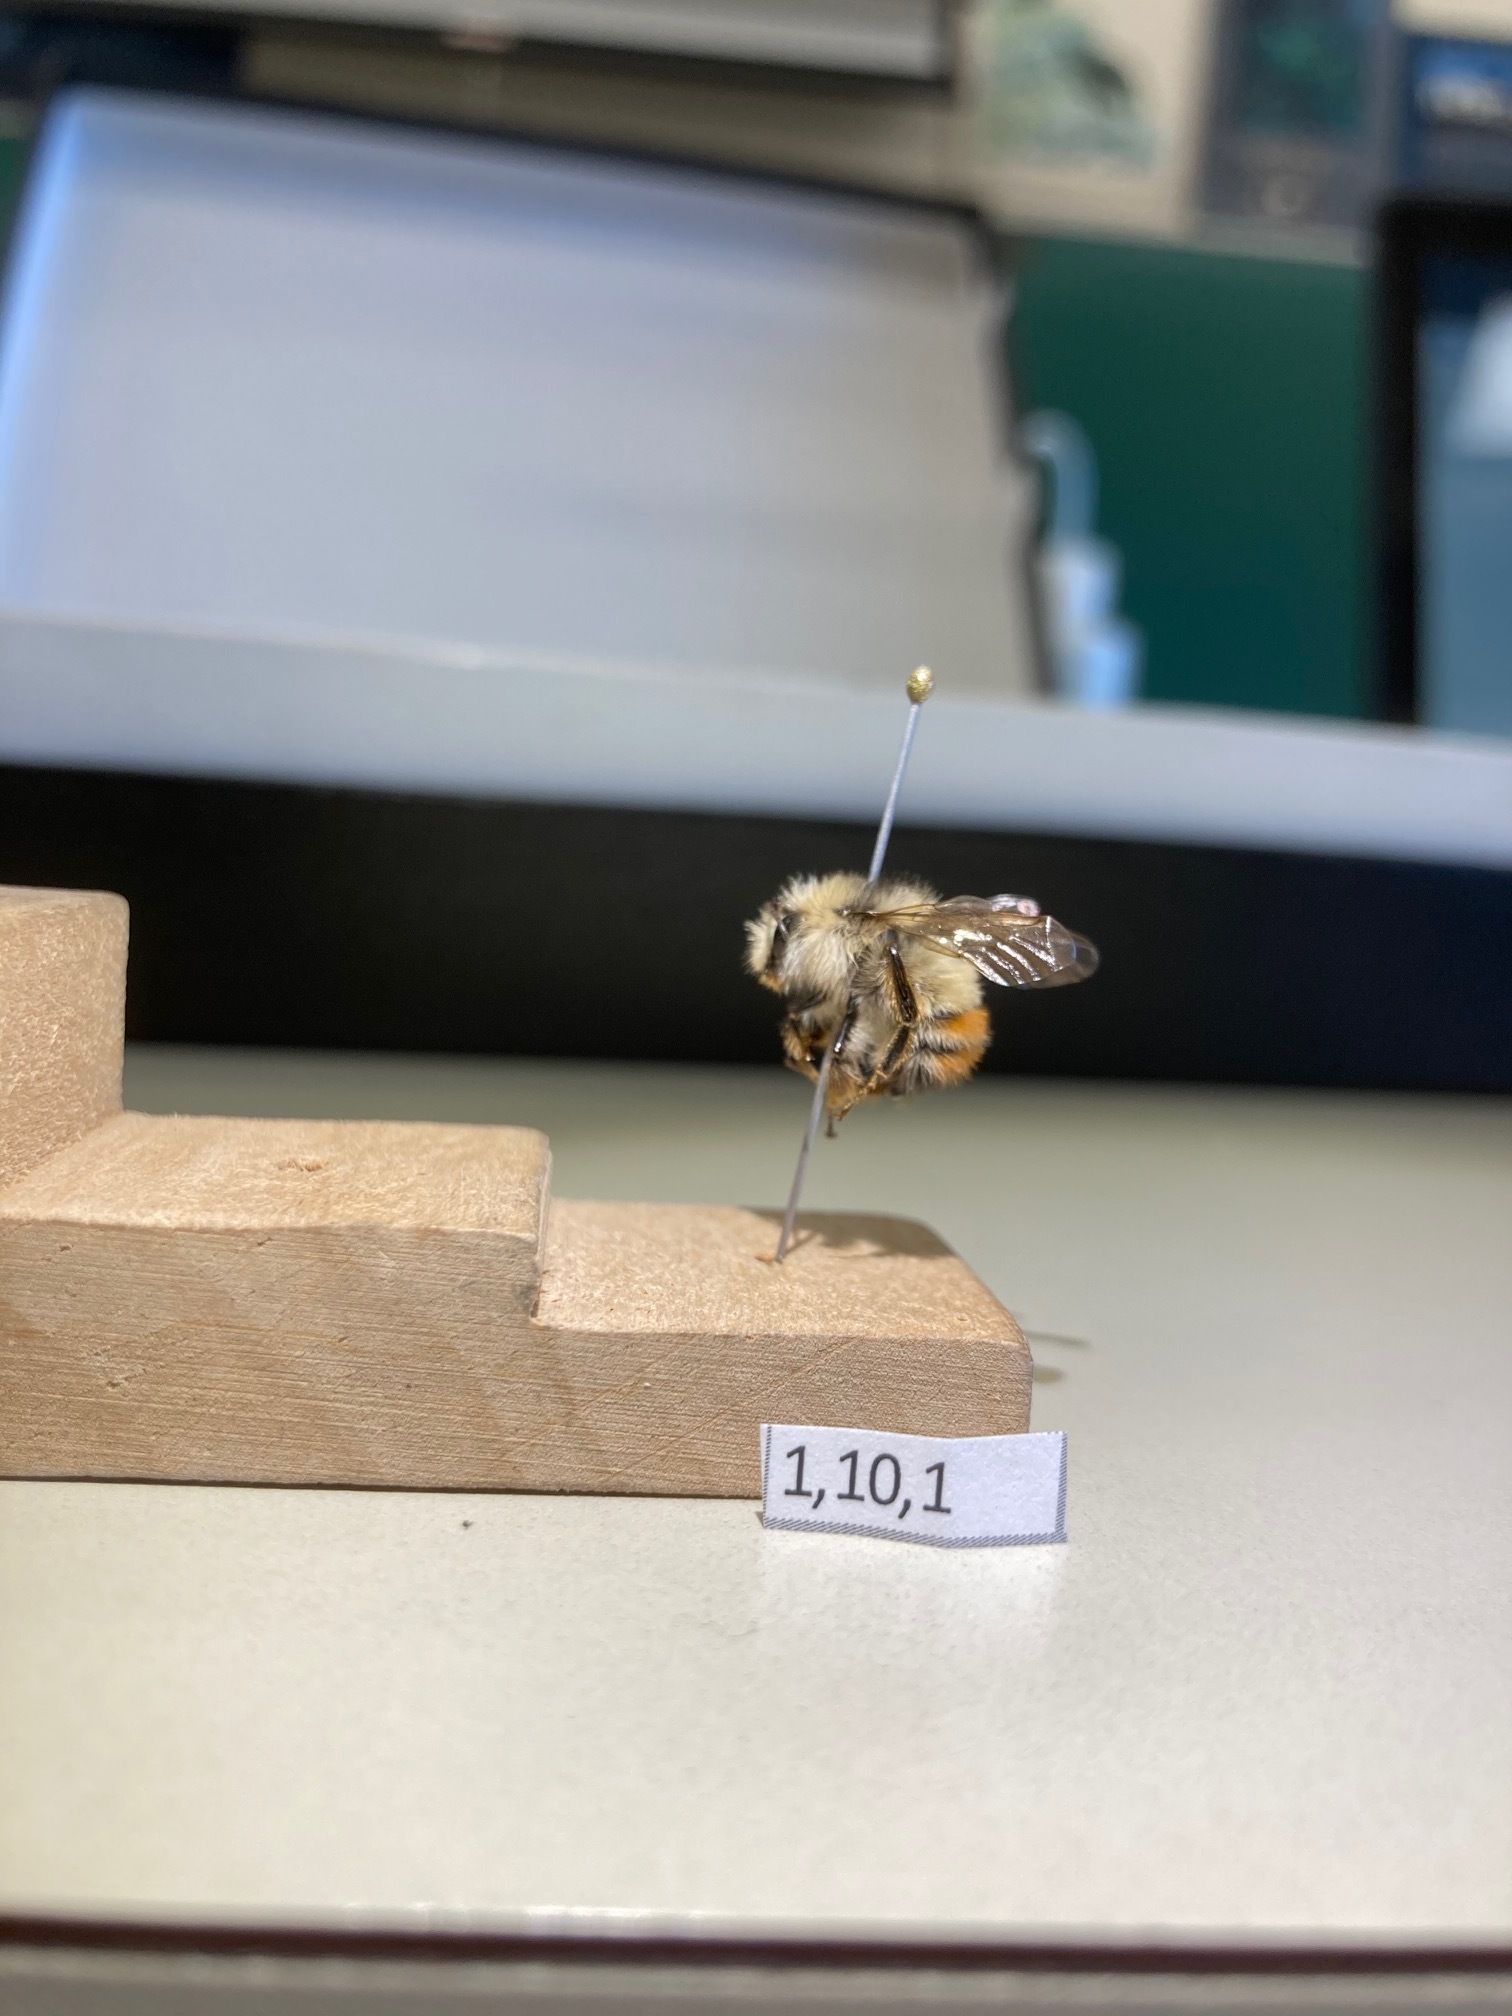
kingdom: Animalia
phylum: Arthropoda
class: Insecta
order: Hymenoptera
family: Apidae
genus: Bombus
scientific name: Bombus flavifrons
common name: Yellow head bumble bee
